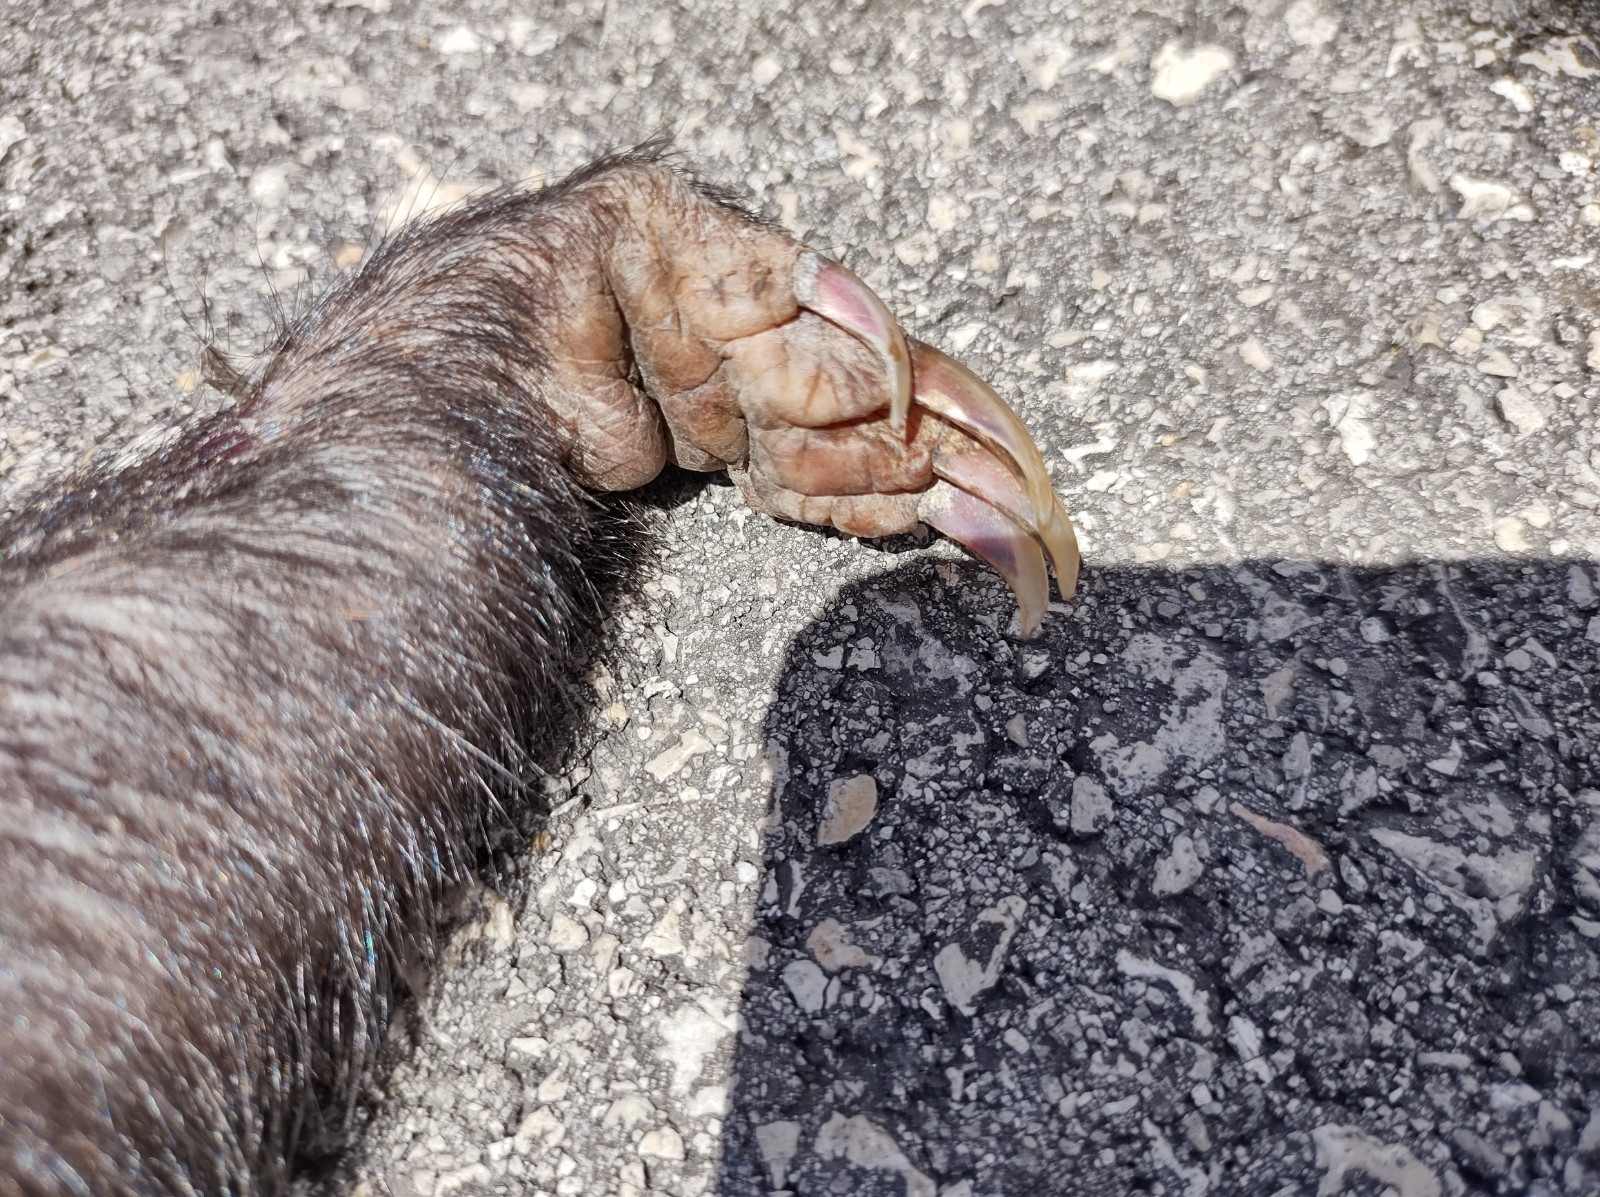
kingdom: Animalia
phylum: Chordata
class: Mammalia
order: Carnivora
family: Mephitidae
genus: Conepatus
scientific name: Conepatus semistriatus
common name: Striped hog-nosed skunk
